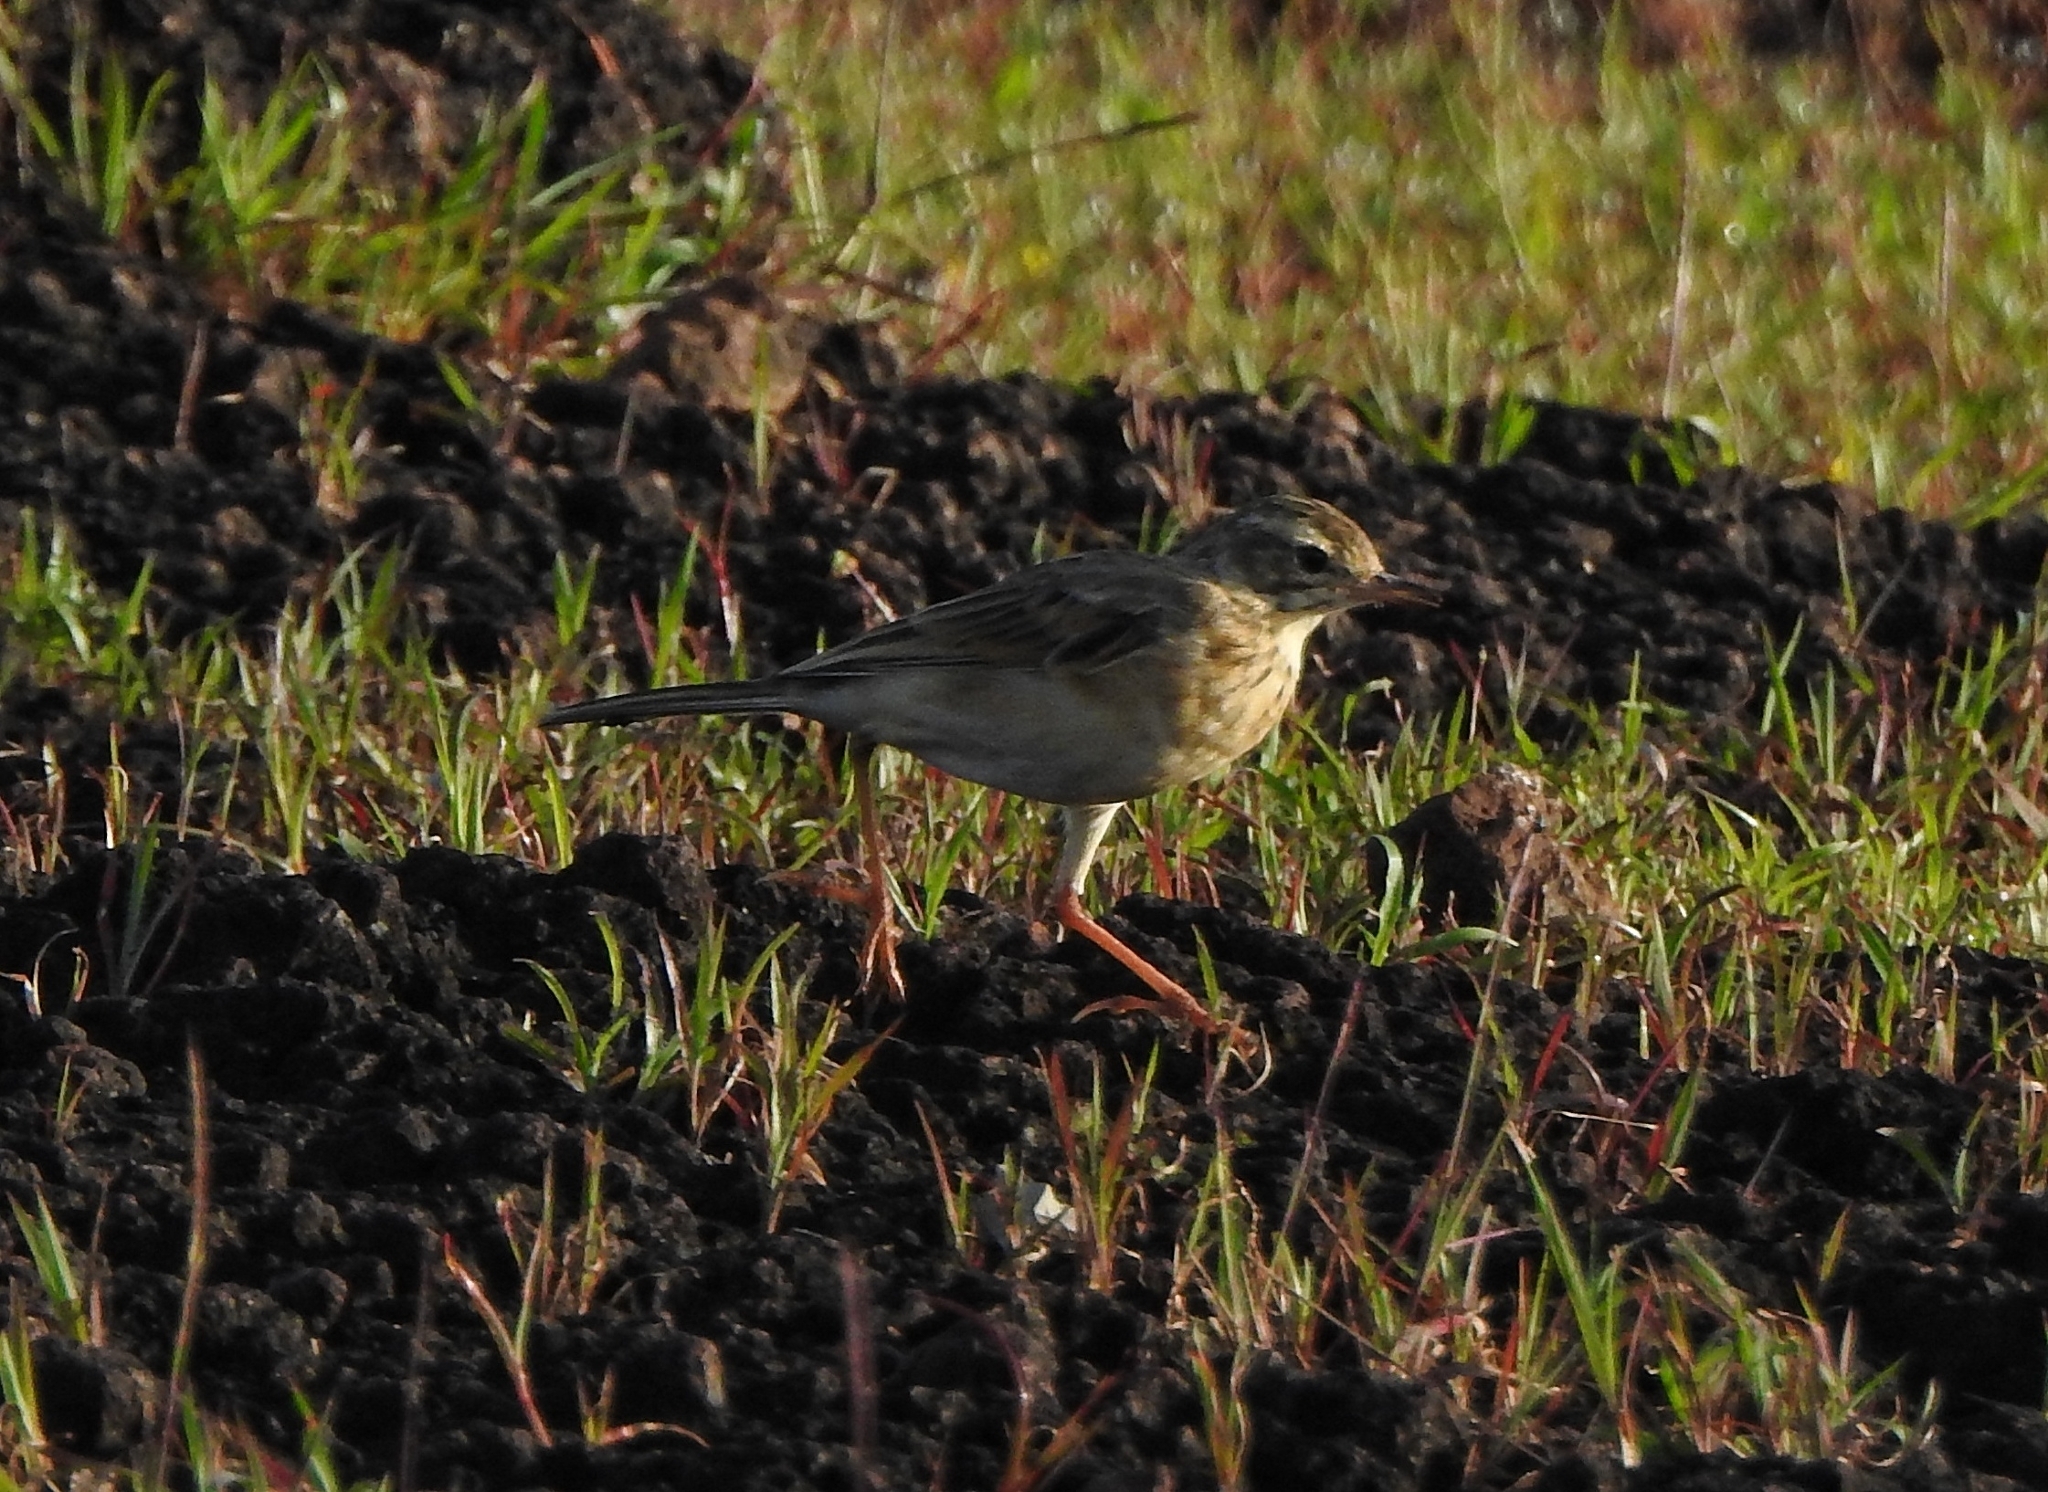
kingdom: Animalia
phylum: Chordata
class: Aves
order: Passeriformes
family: Motacillidae
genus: Anthus
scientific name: Anthus rufulus
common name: Paddyfield pipit
